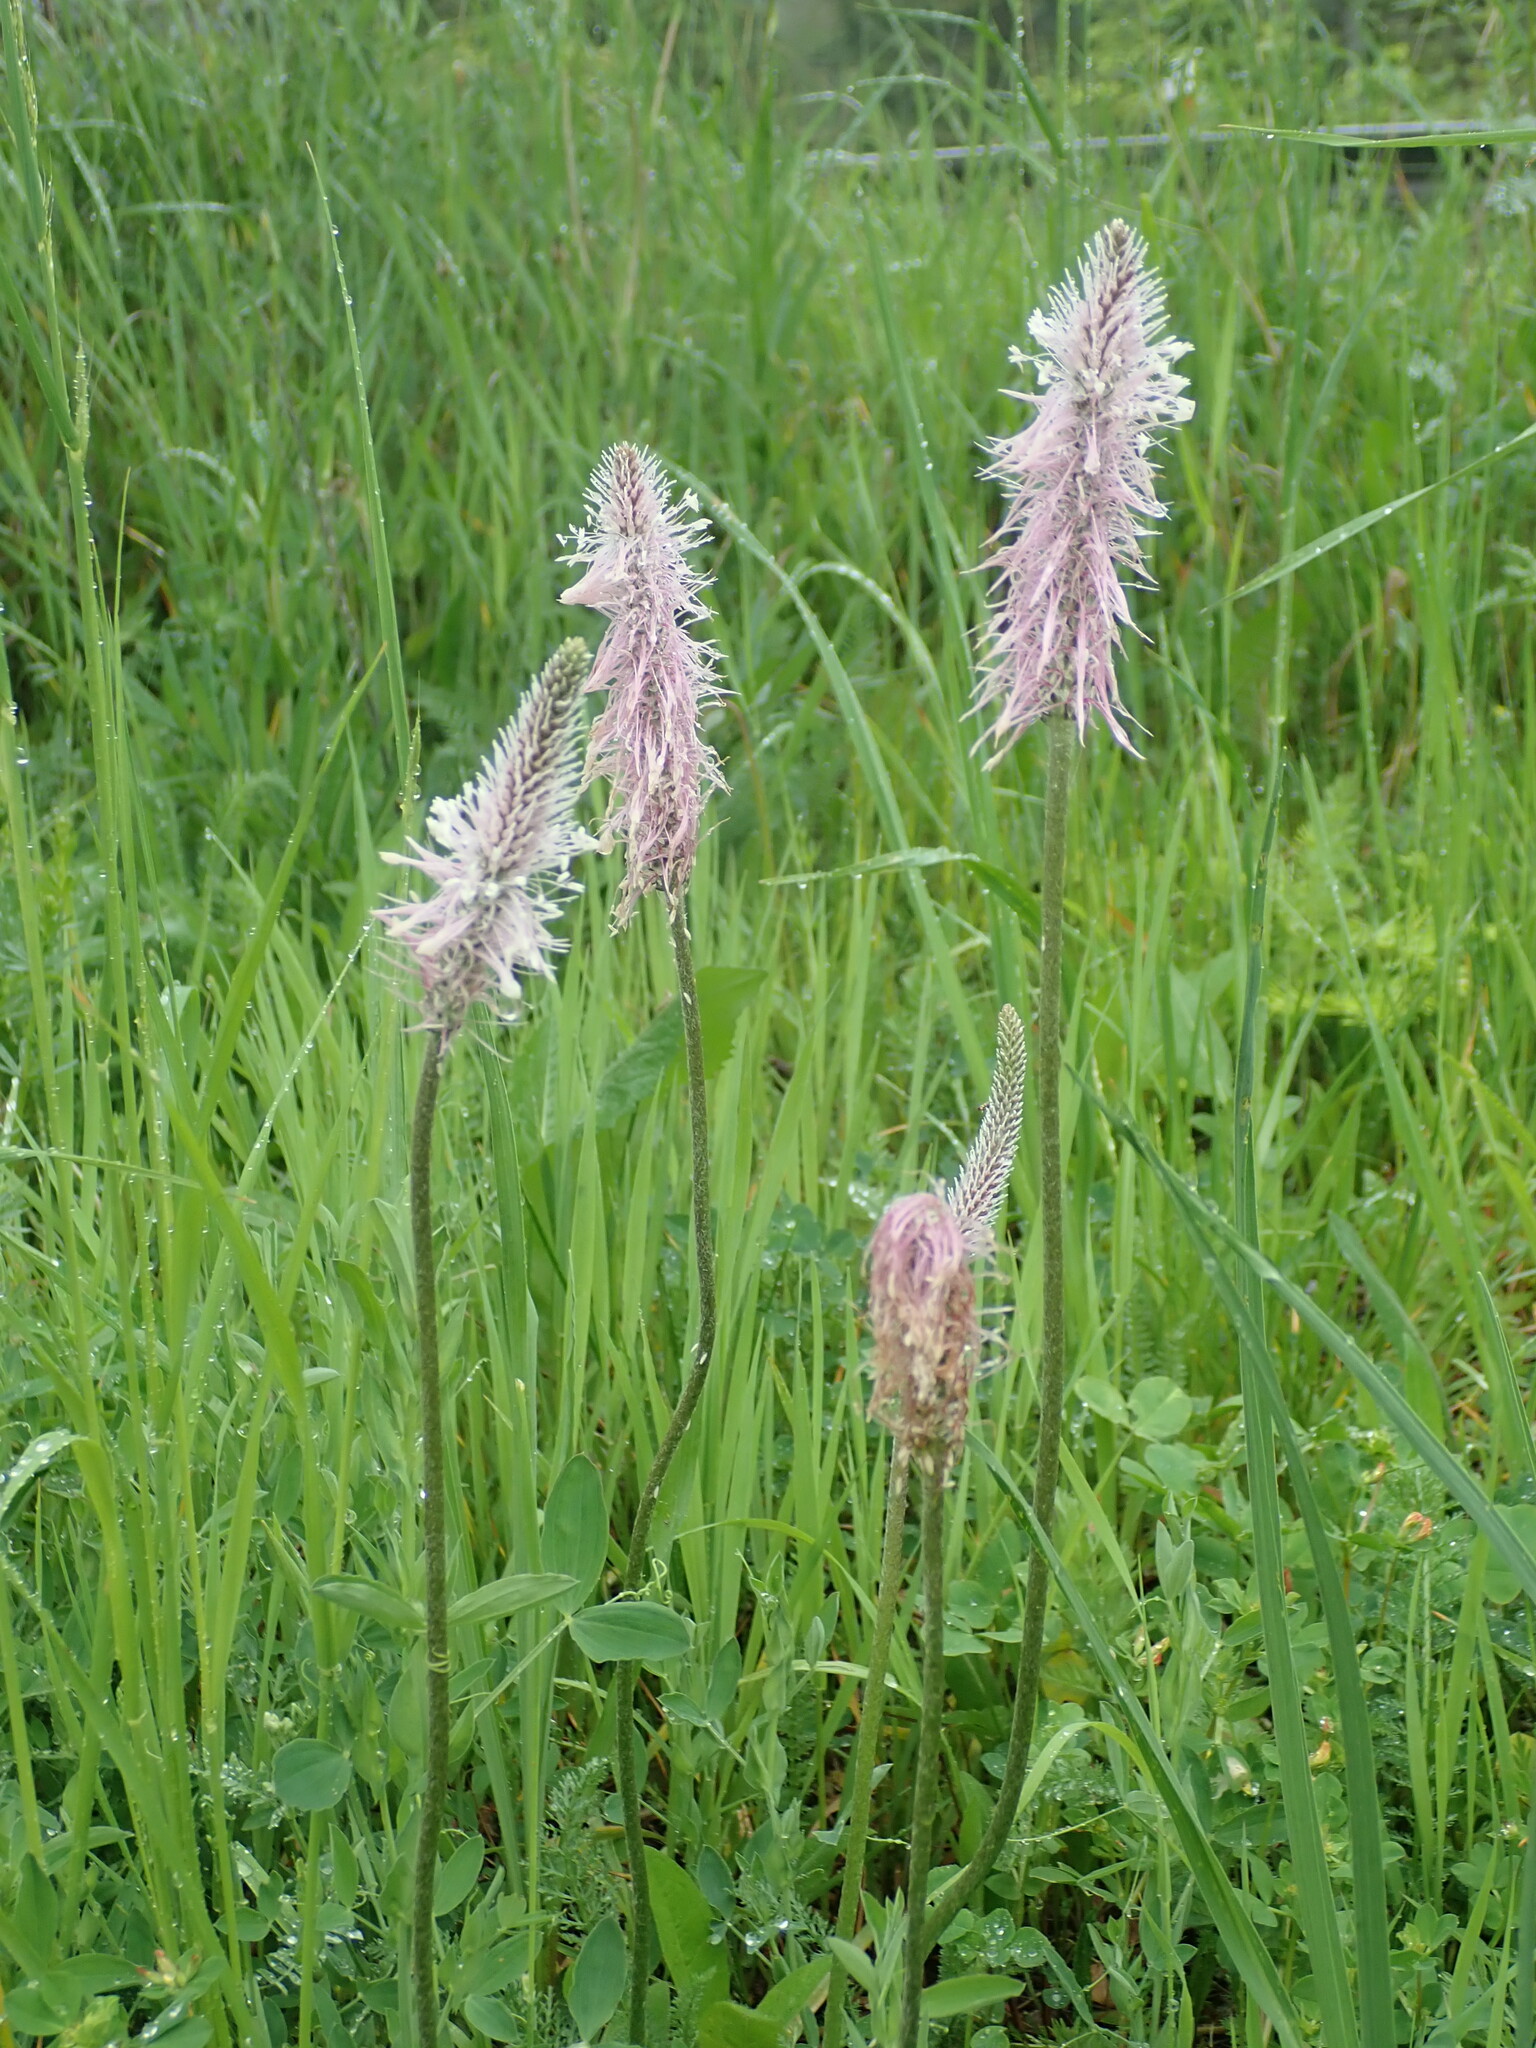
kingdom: Plantae
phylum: Tracheophyta
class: Magnoliopsida
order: Lamiales
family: Plantaginaceae
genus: Plantago
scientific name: Plantago media
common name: Hoary plantain
